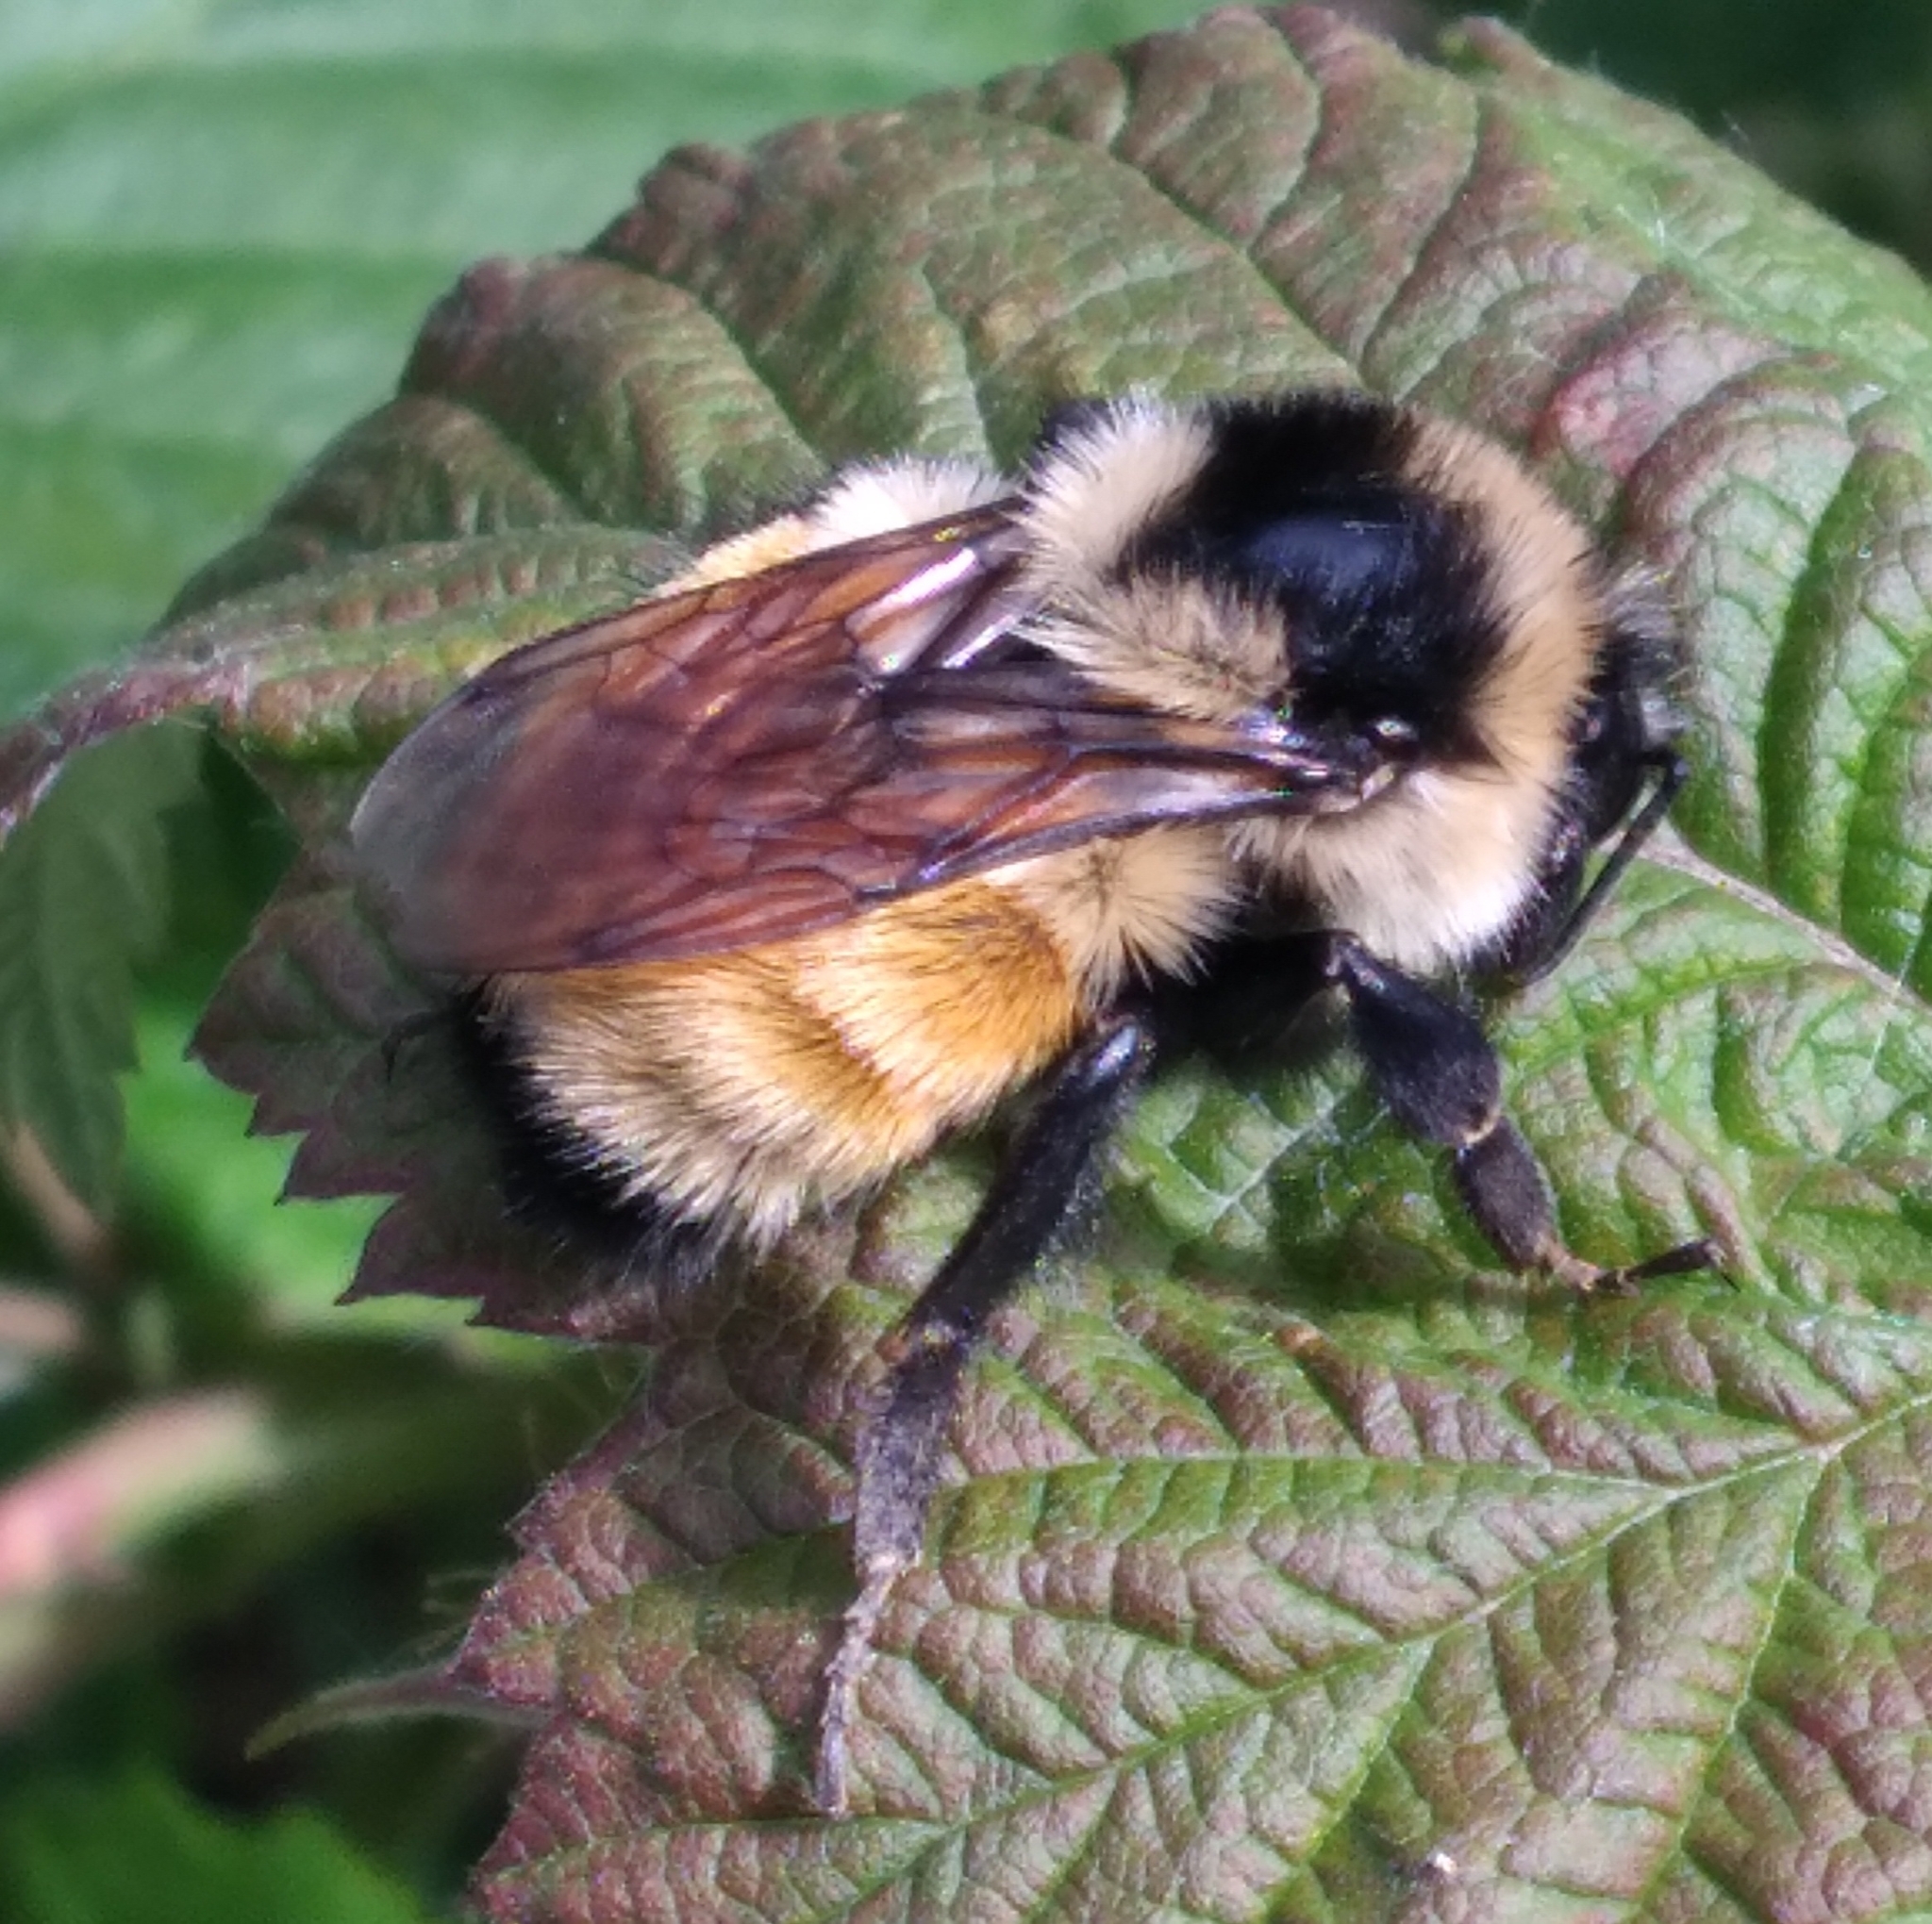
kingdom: Animalia
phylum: Arthropoda
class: Insecta
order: Hymenoptera
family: Apidae
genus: Bombus
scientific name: Bombus ternarius
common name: Tri-colored bumble bee
